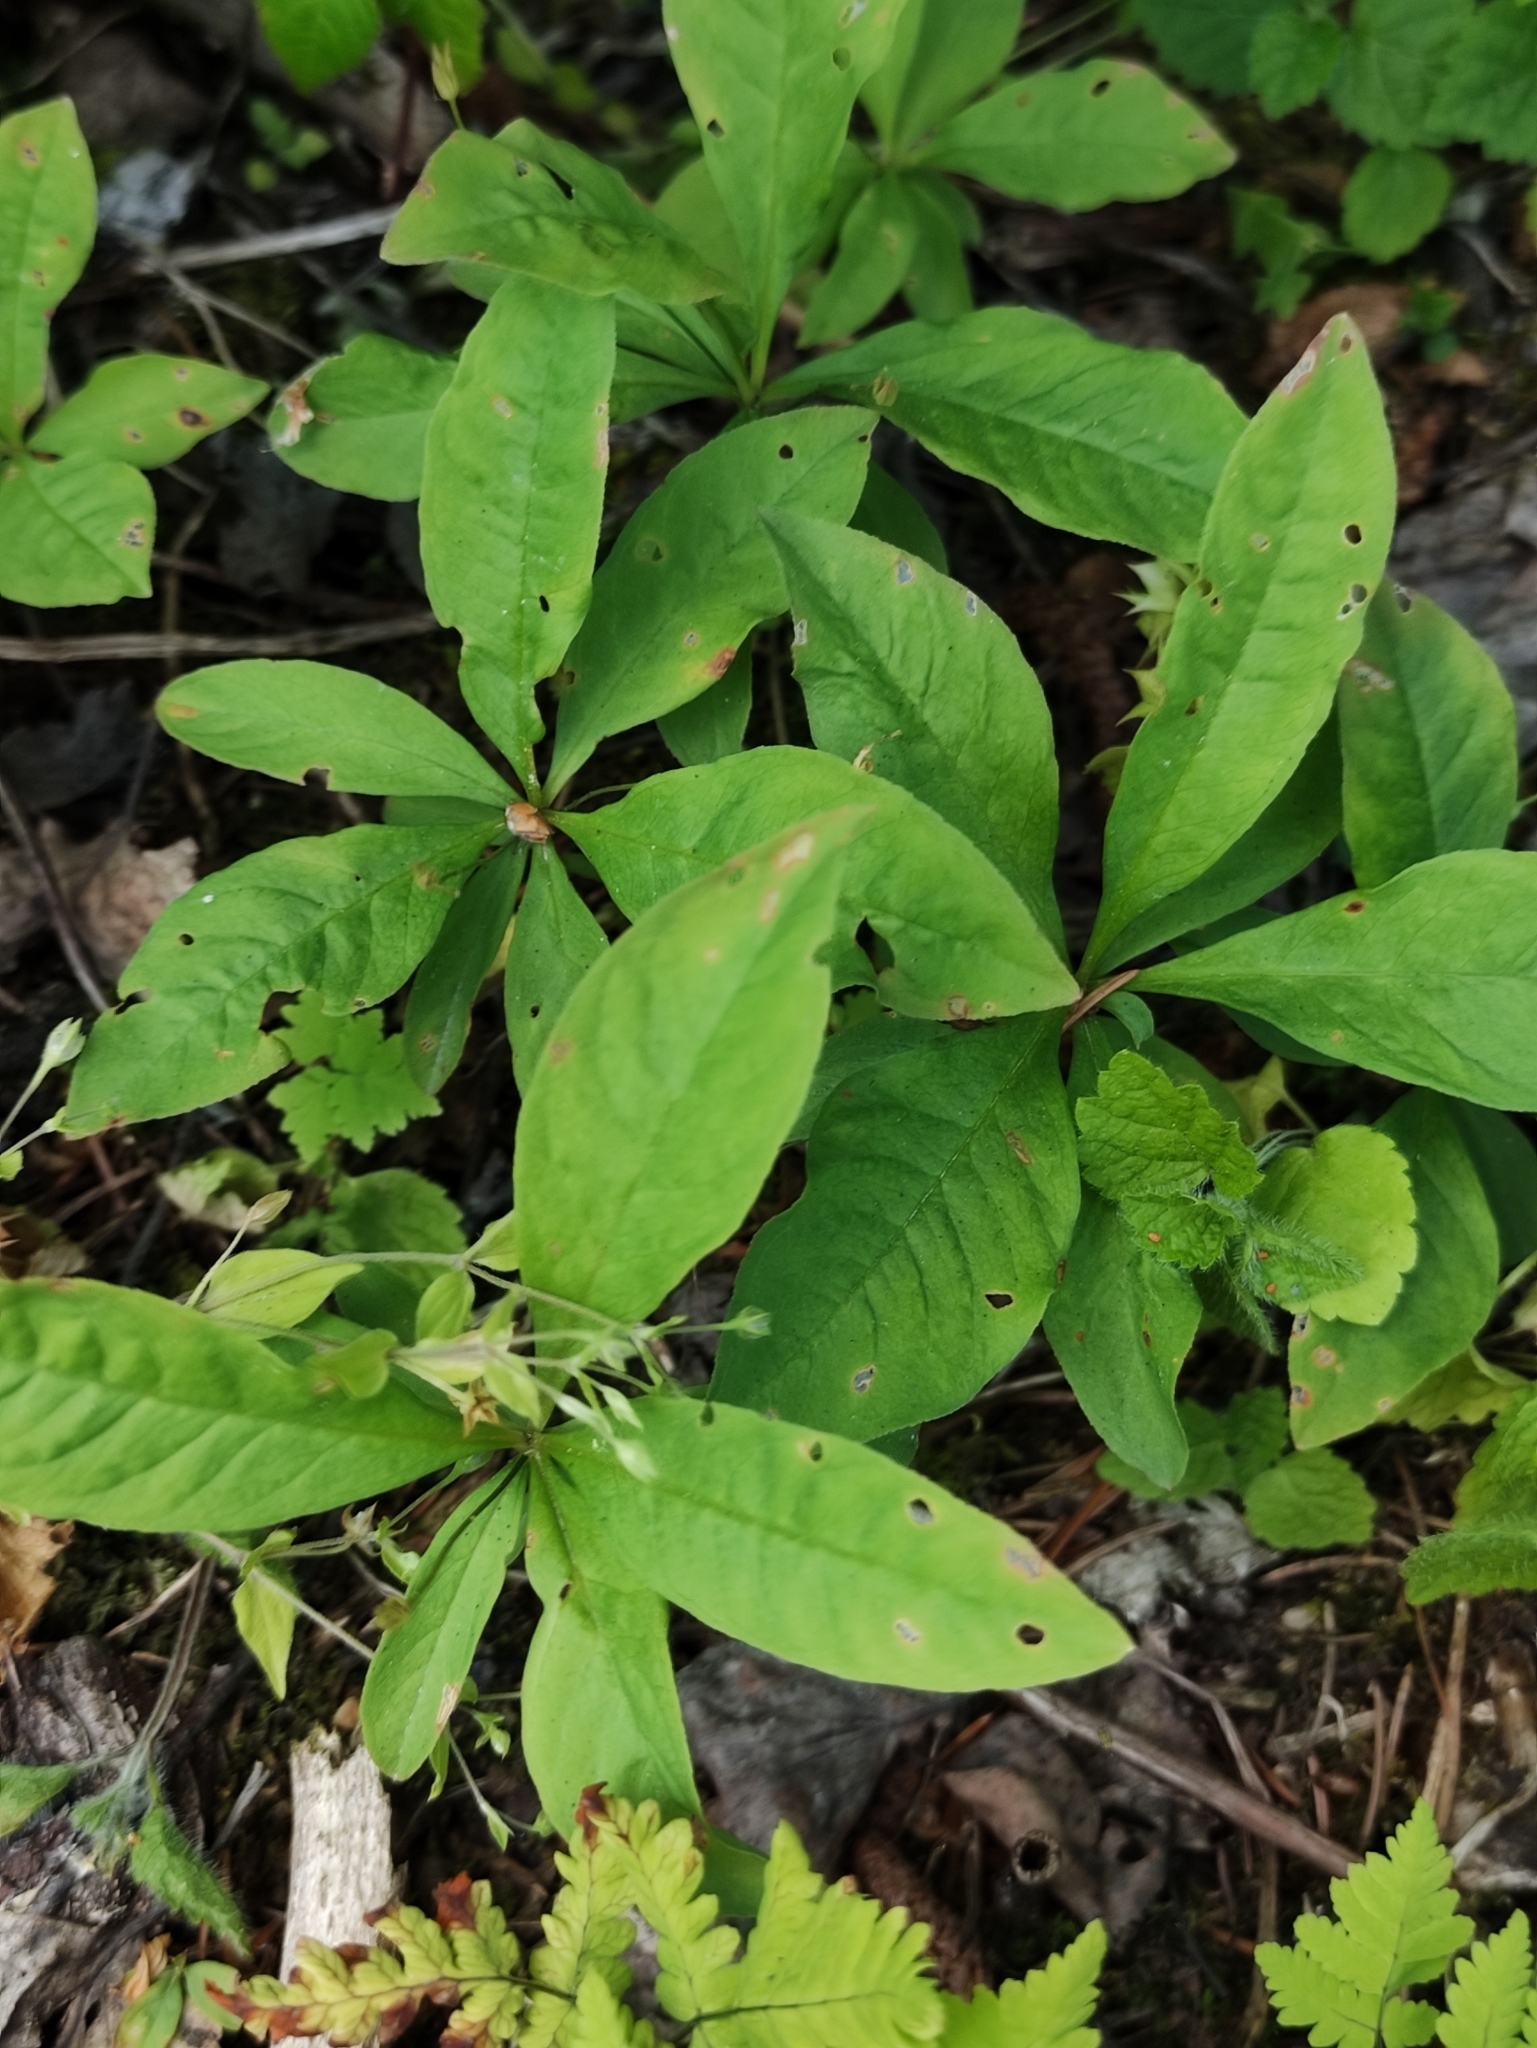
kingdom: Plantae
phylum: Tracheophyta
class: Magnoliopsida
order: Ericales
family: Primulaceae
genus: Lysimachia
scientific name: Lysimachia europaea
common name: Arctic starflower
